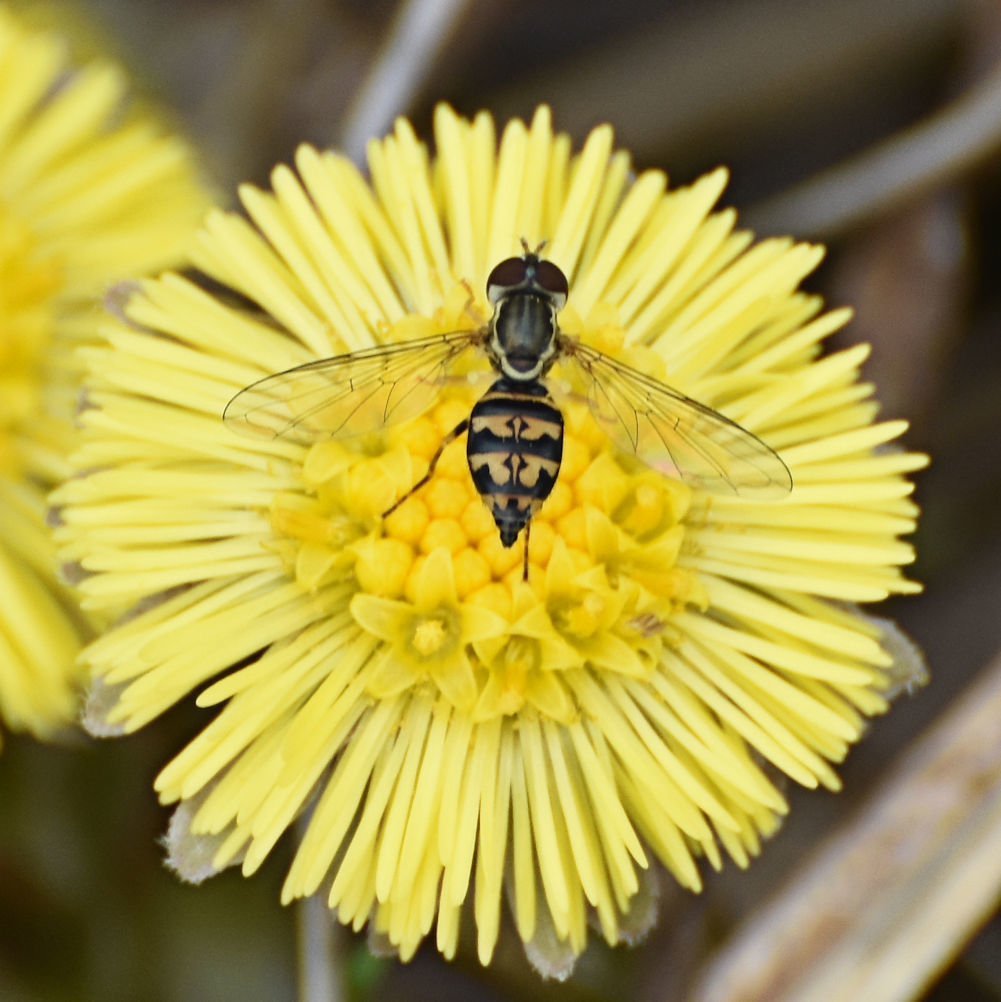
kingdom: Animalia
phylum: Arthropoda
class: Insecta
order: Diptera
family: Syrphidae
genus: Toxomerus
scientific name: Toxomerus geminatus
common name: Eastern calligrapher
